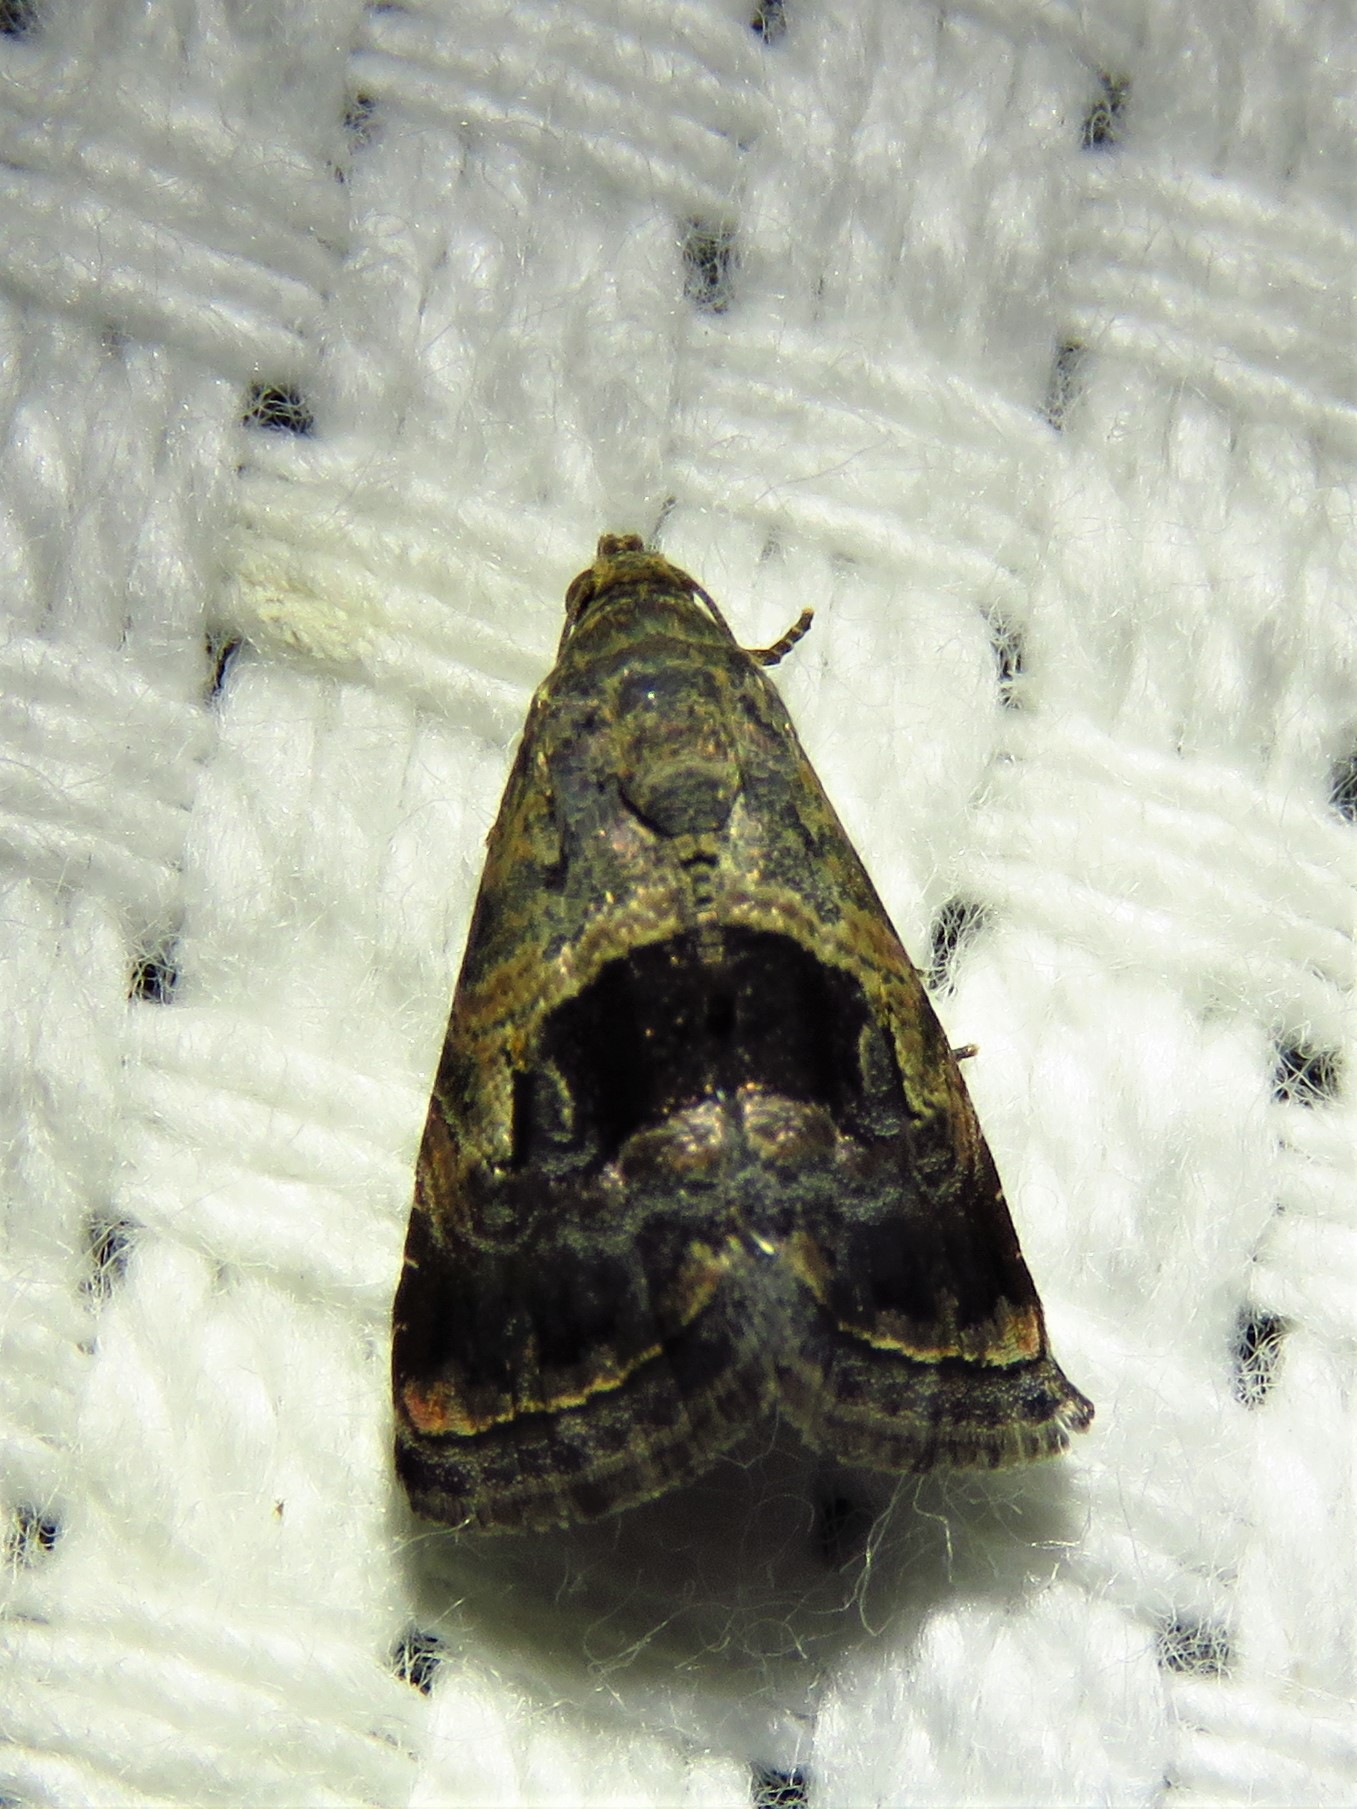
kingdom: Animalia
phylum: Arthropoda
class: Insecta
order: Lepidoptera
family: Noctuidae
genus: Tripudia
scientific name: Tripudia quadrifera
